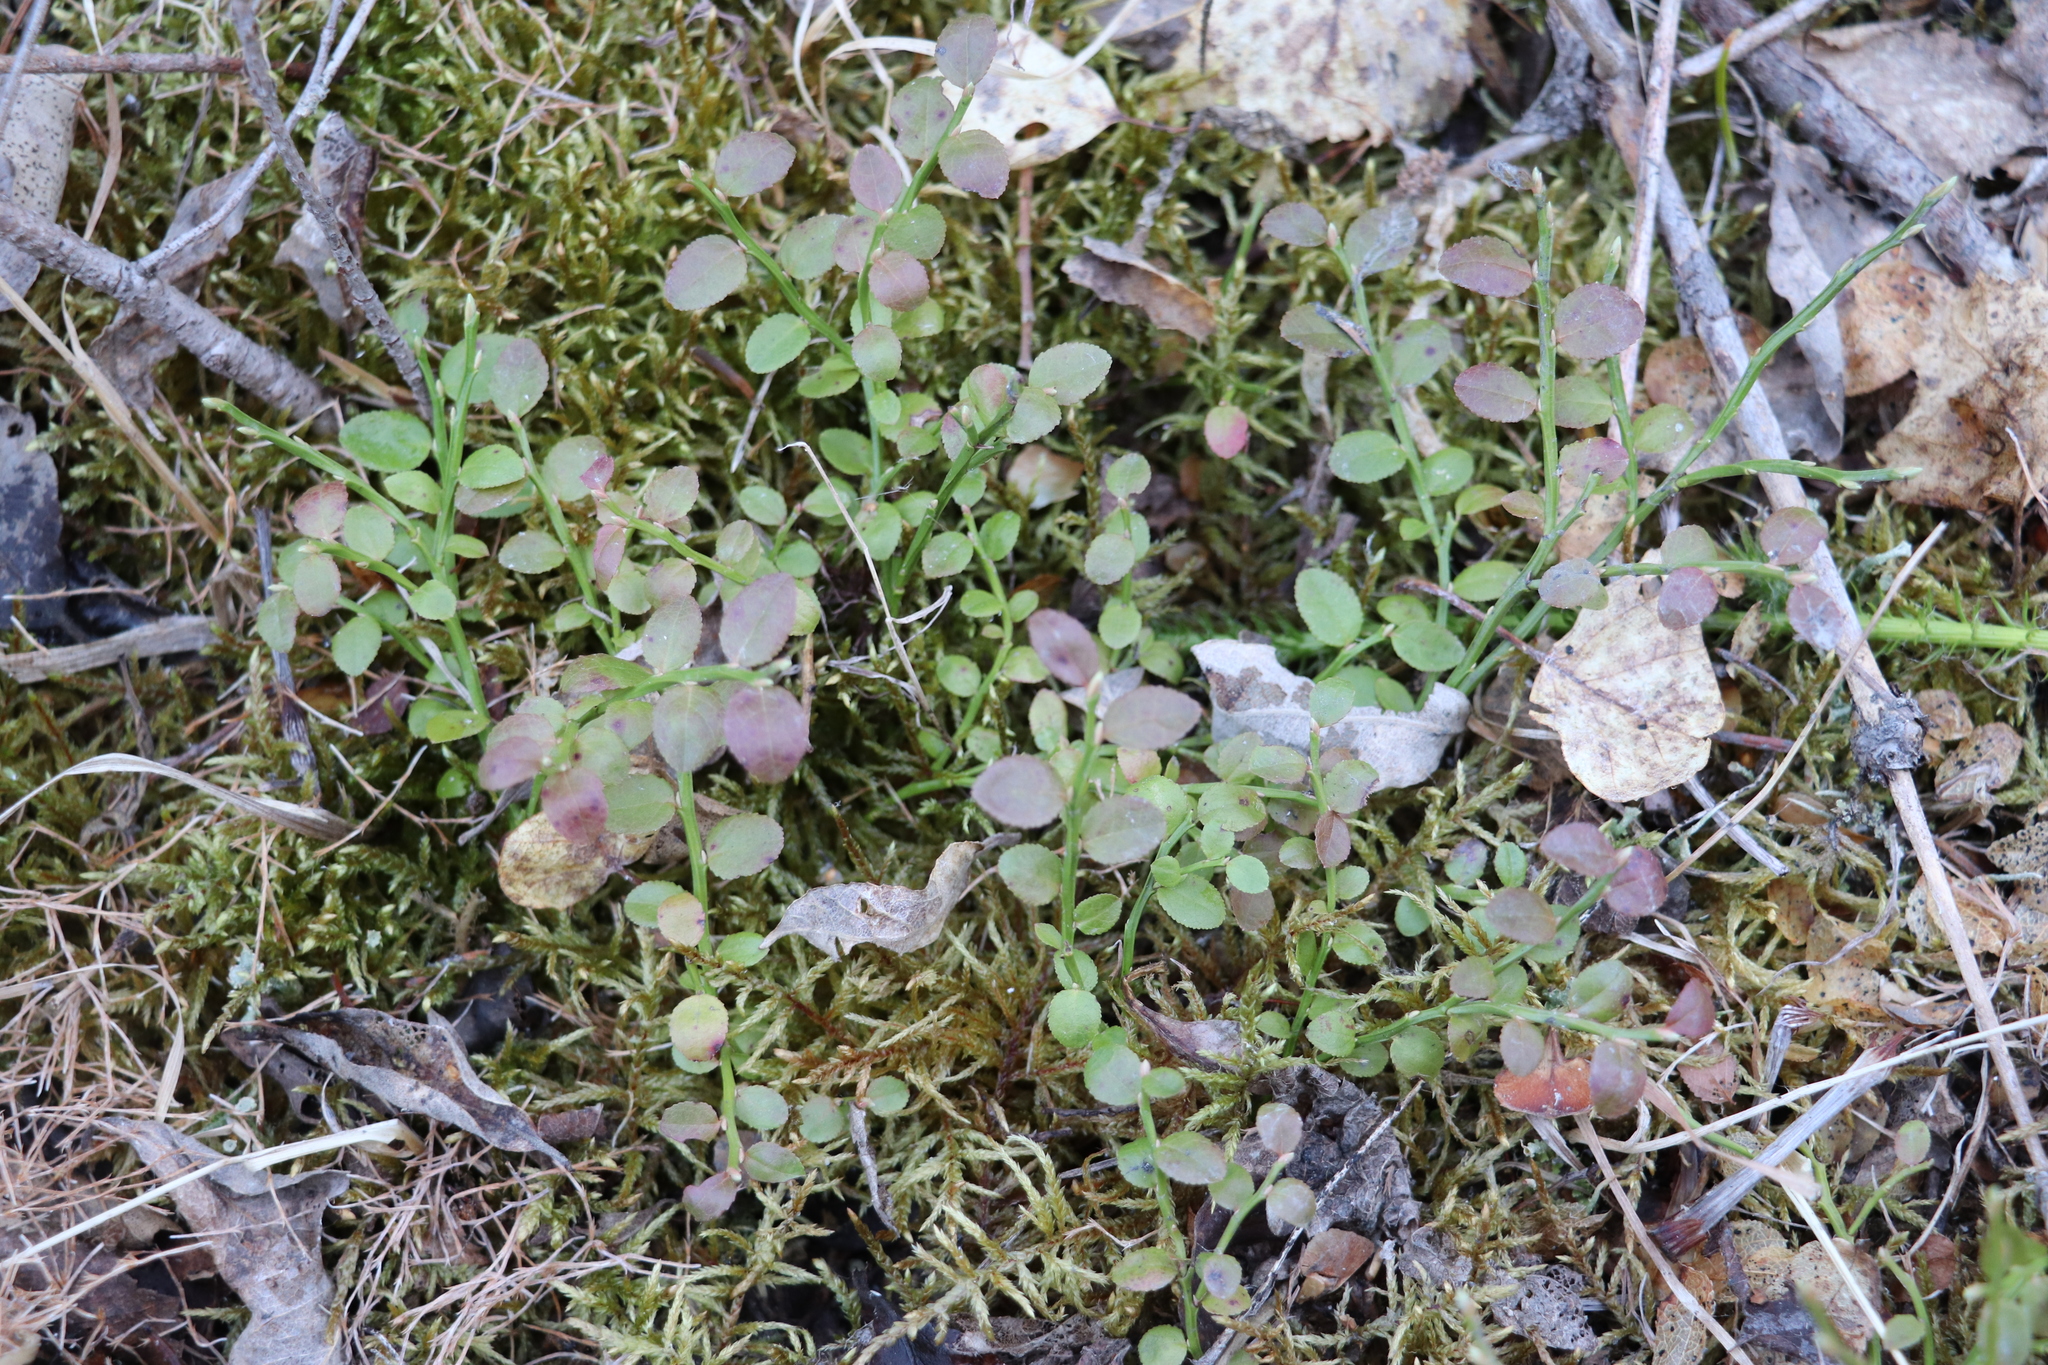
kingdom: Plantae
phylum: Tracheophyta
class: Magnoliopsida
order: Ericales
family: Ericaceae
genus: Vaccinium
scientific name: Vaccinium myrtillus
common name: Bilberry
